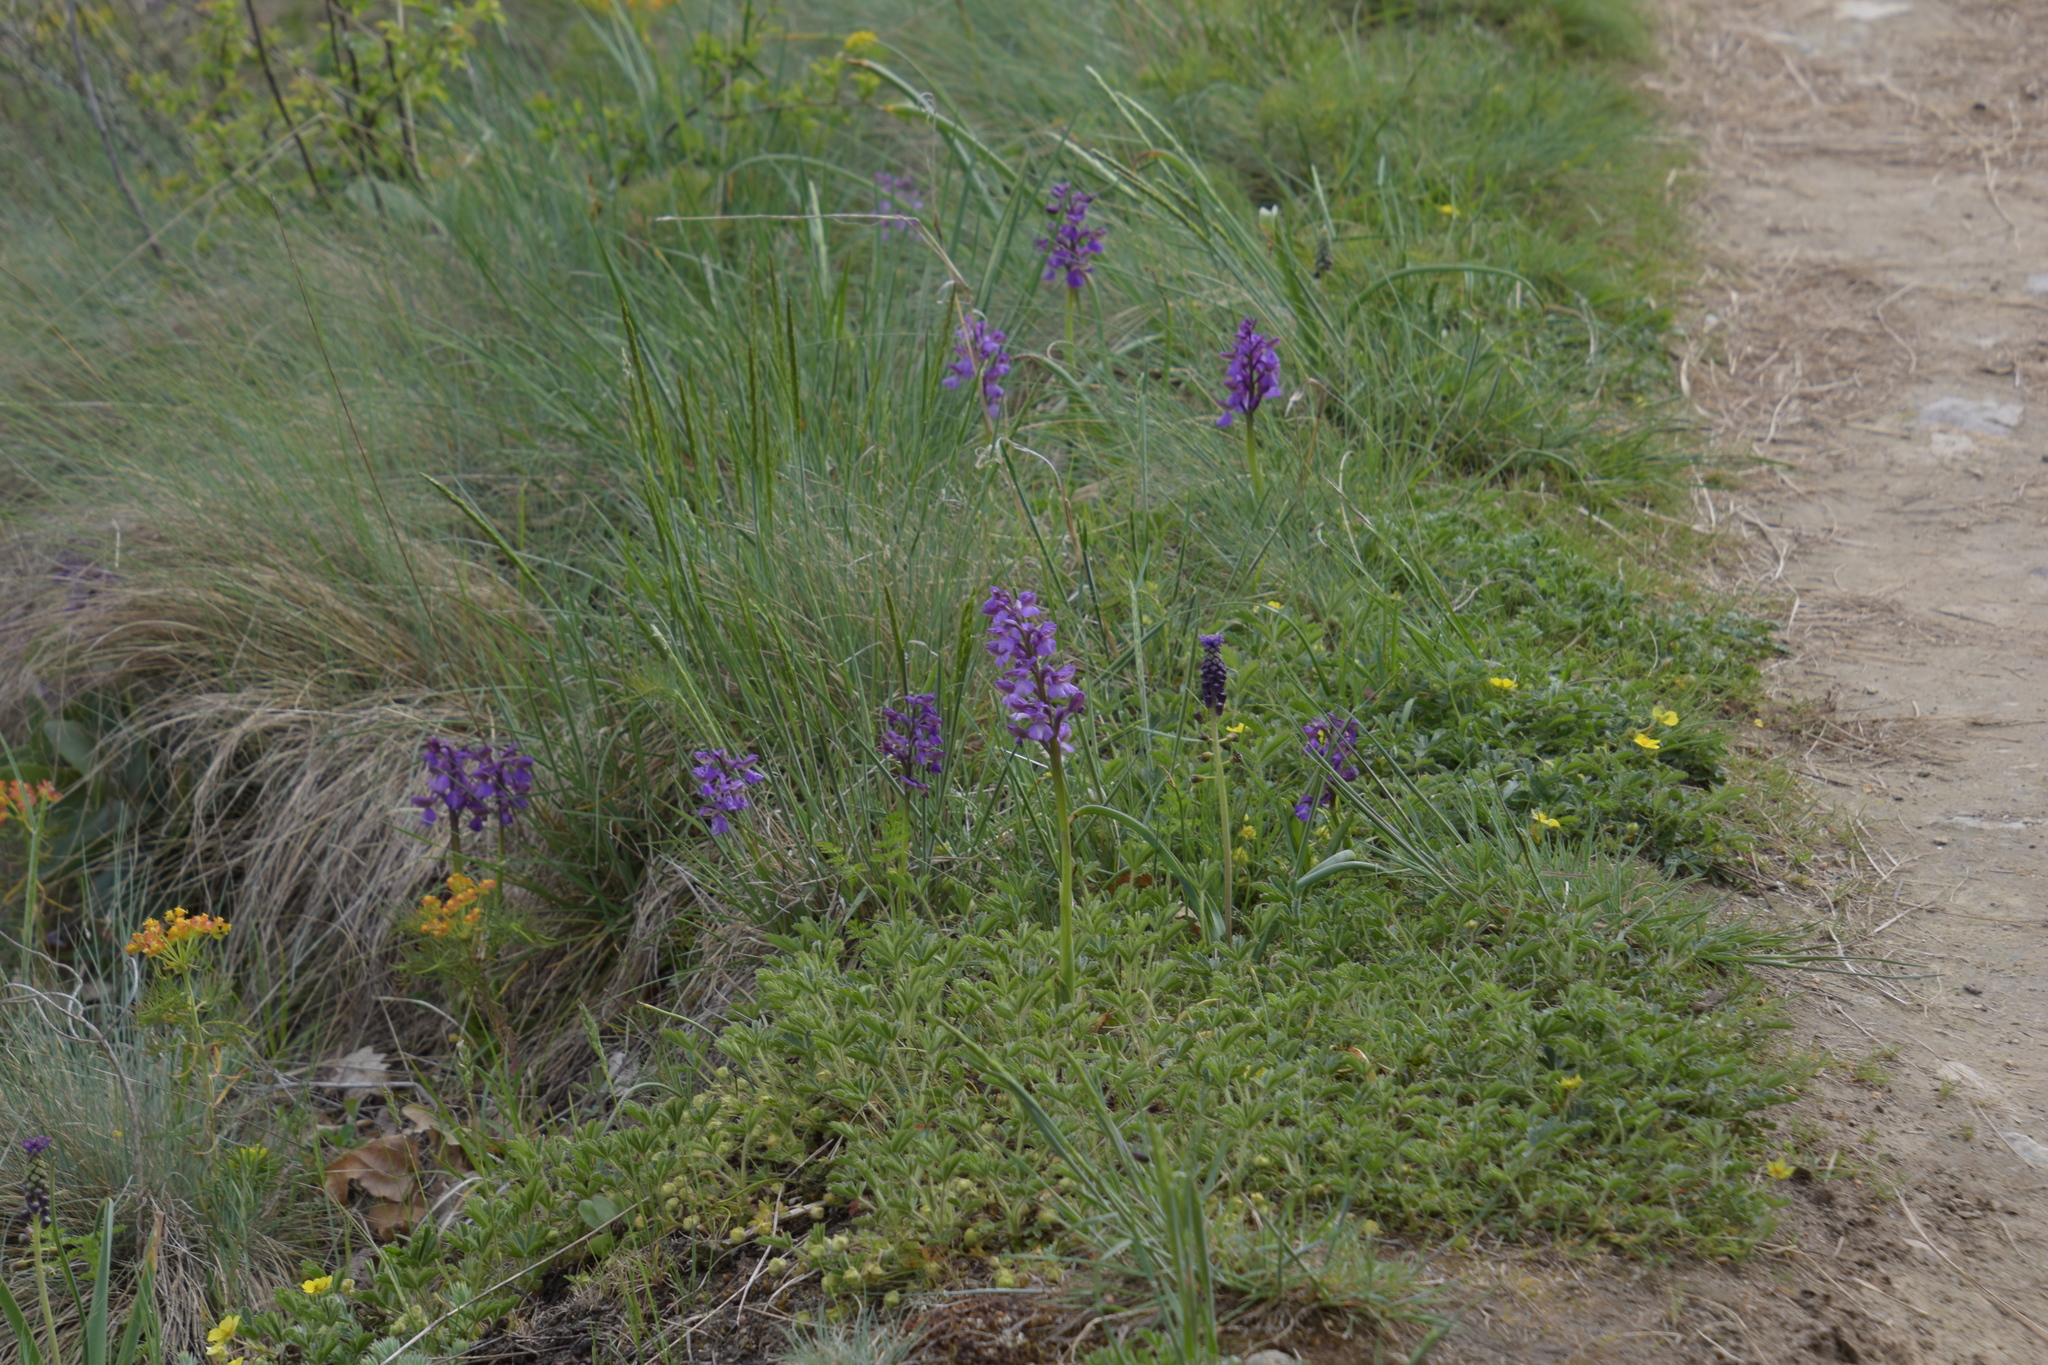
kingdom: Plantae
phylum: Tracheophyta
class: Liliopsida
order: Asparagales
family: Orchidaceae
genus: Anacamptis
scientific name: Anacamptis morio
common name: Green-winged orchid
